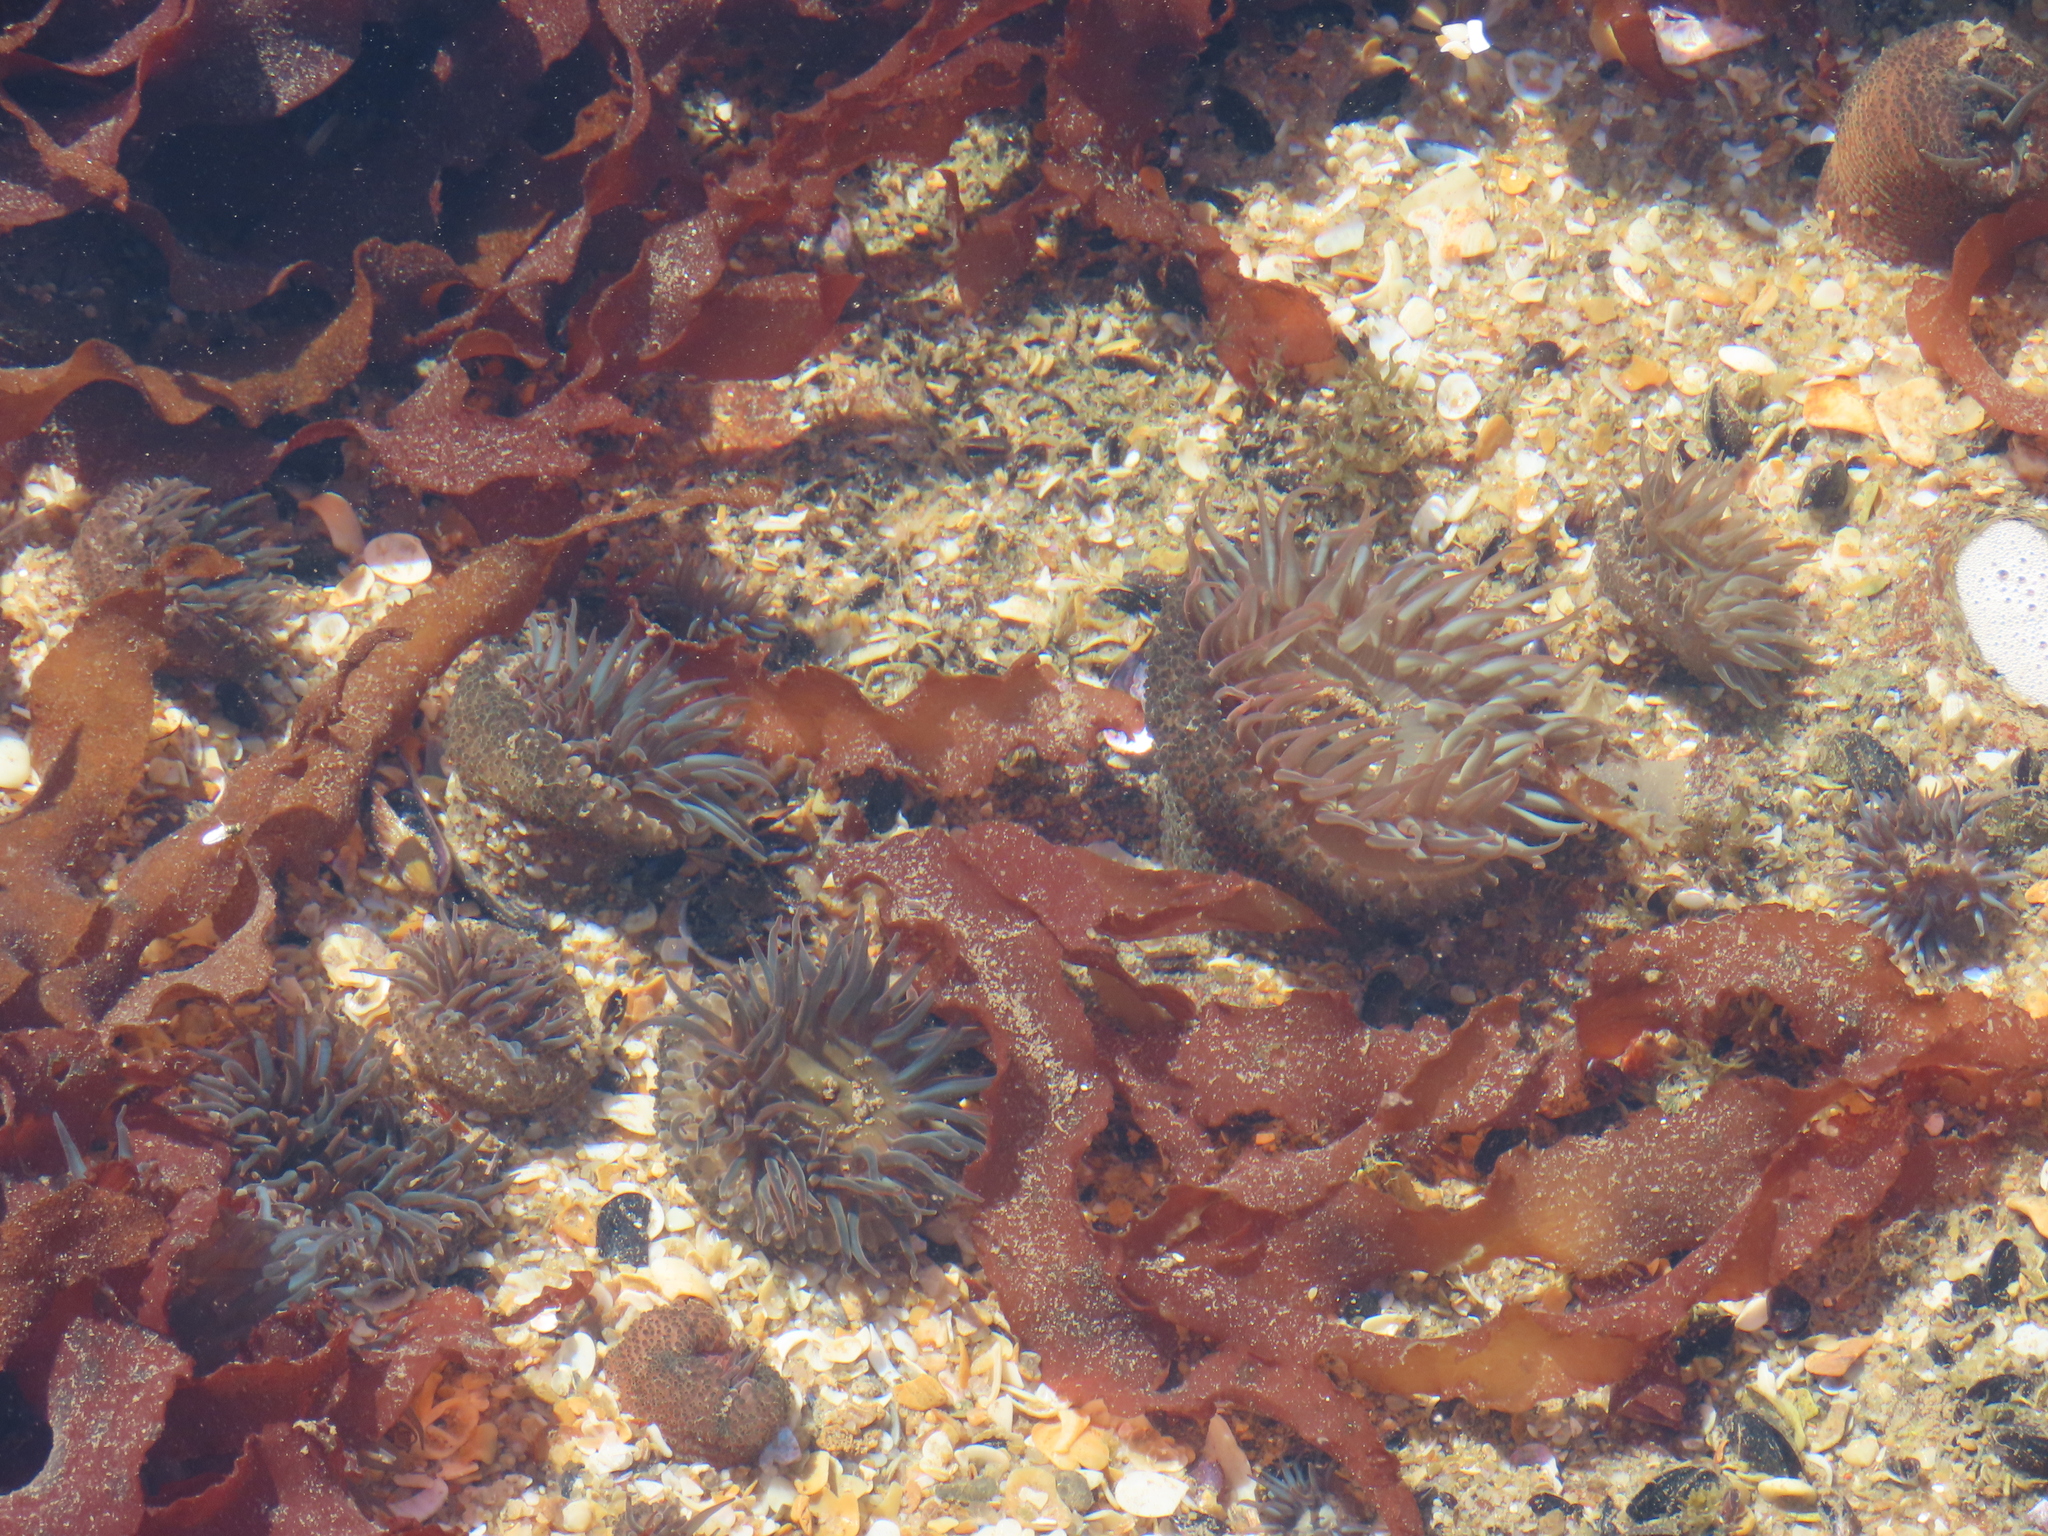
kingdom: Animalia
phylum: Cnidaria
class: Anthozoa
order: Actiniaria
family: Actiniidae
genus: Bunodosoma
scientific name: Bunodosoma cangicum
